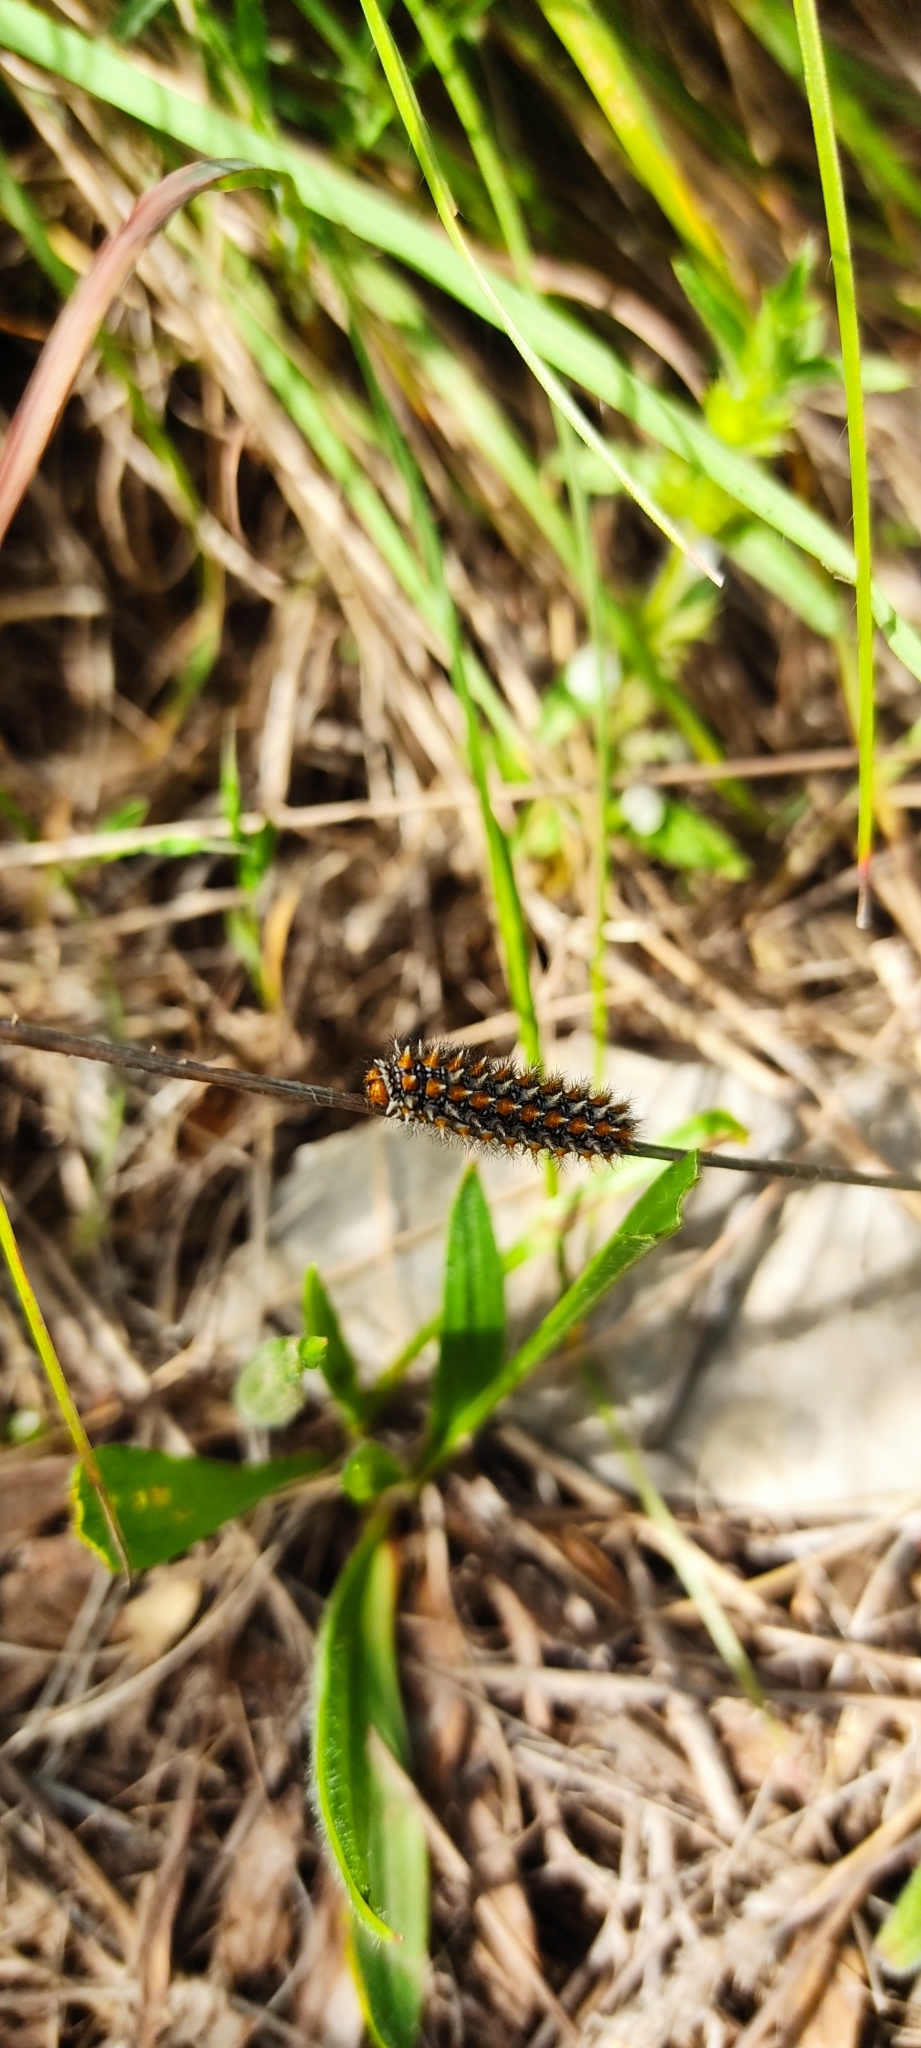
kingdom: Animalia
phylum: Arthropoda
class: Insecta
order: Lepidoptera
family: Nymphalidae
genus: Melitaea
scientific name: Melitaea didyma
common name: Spotted fritillary
